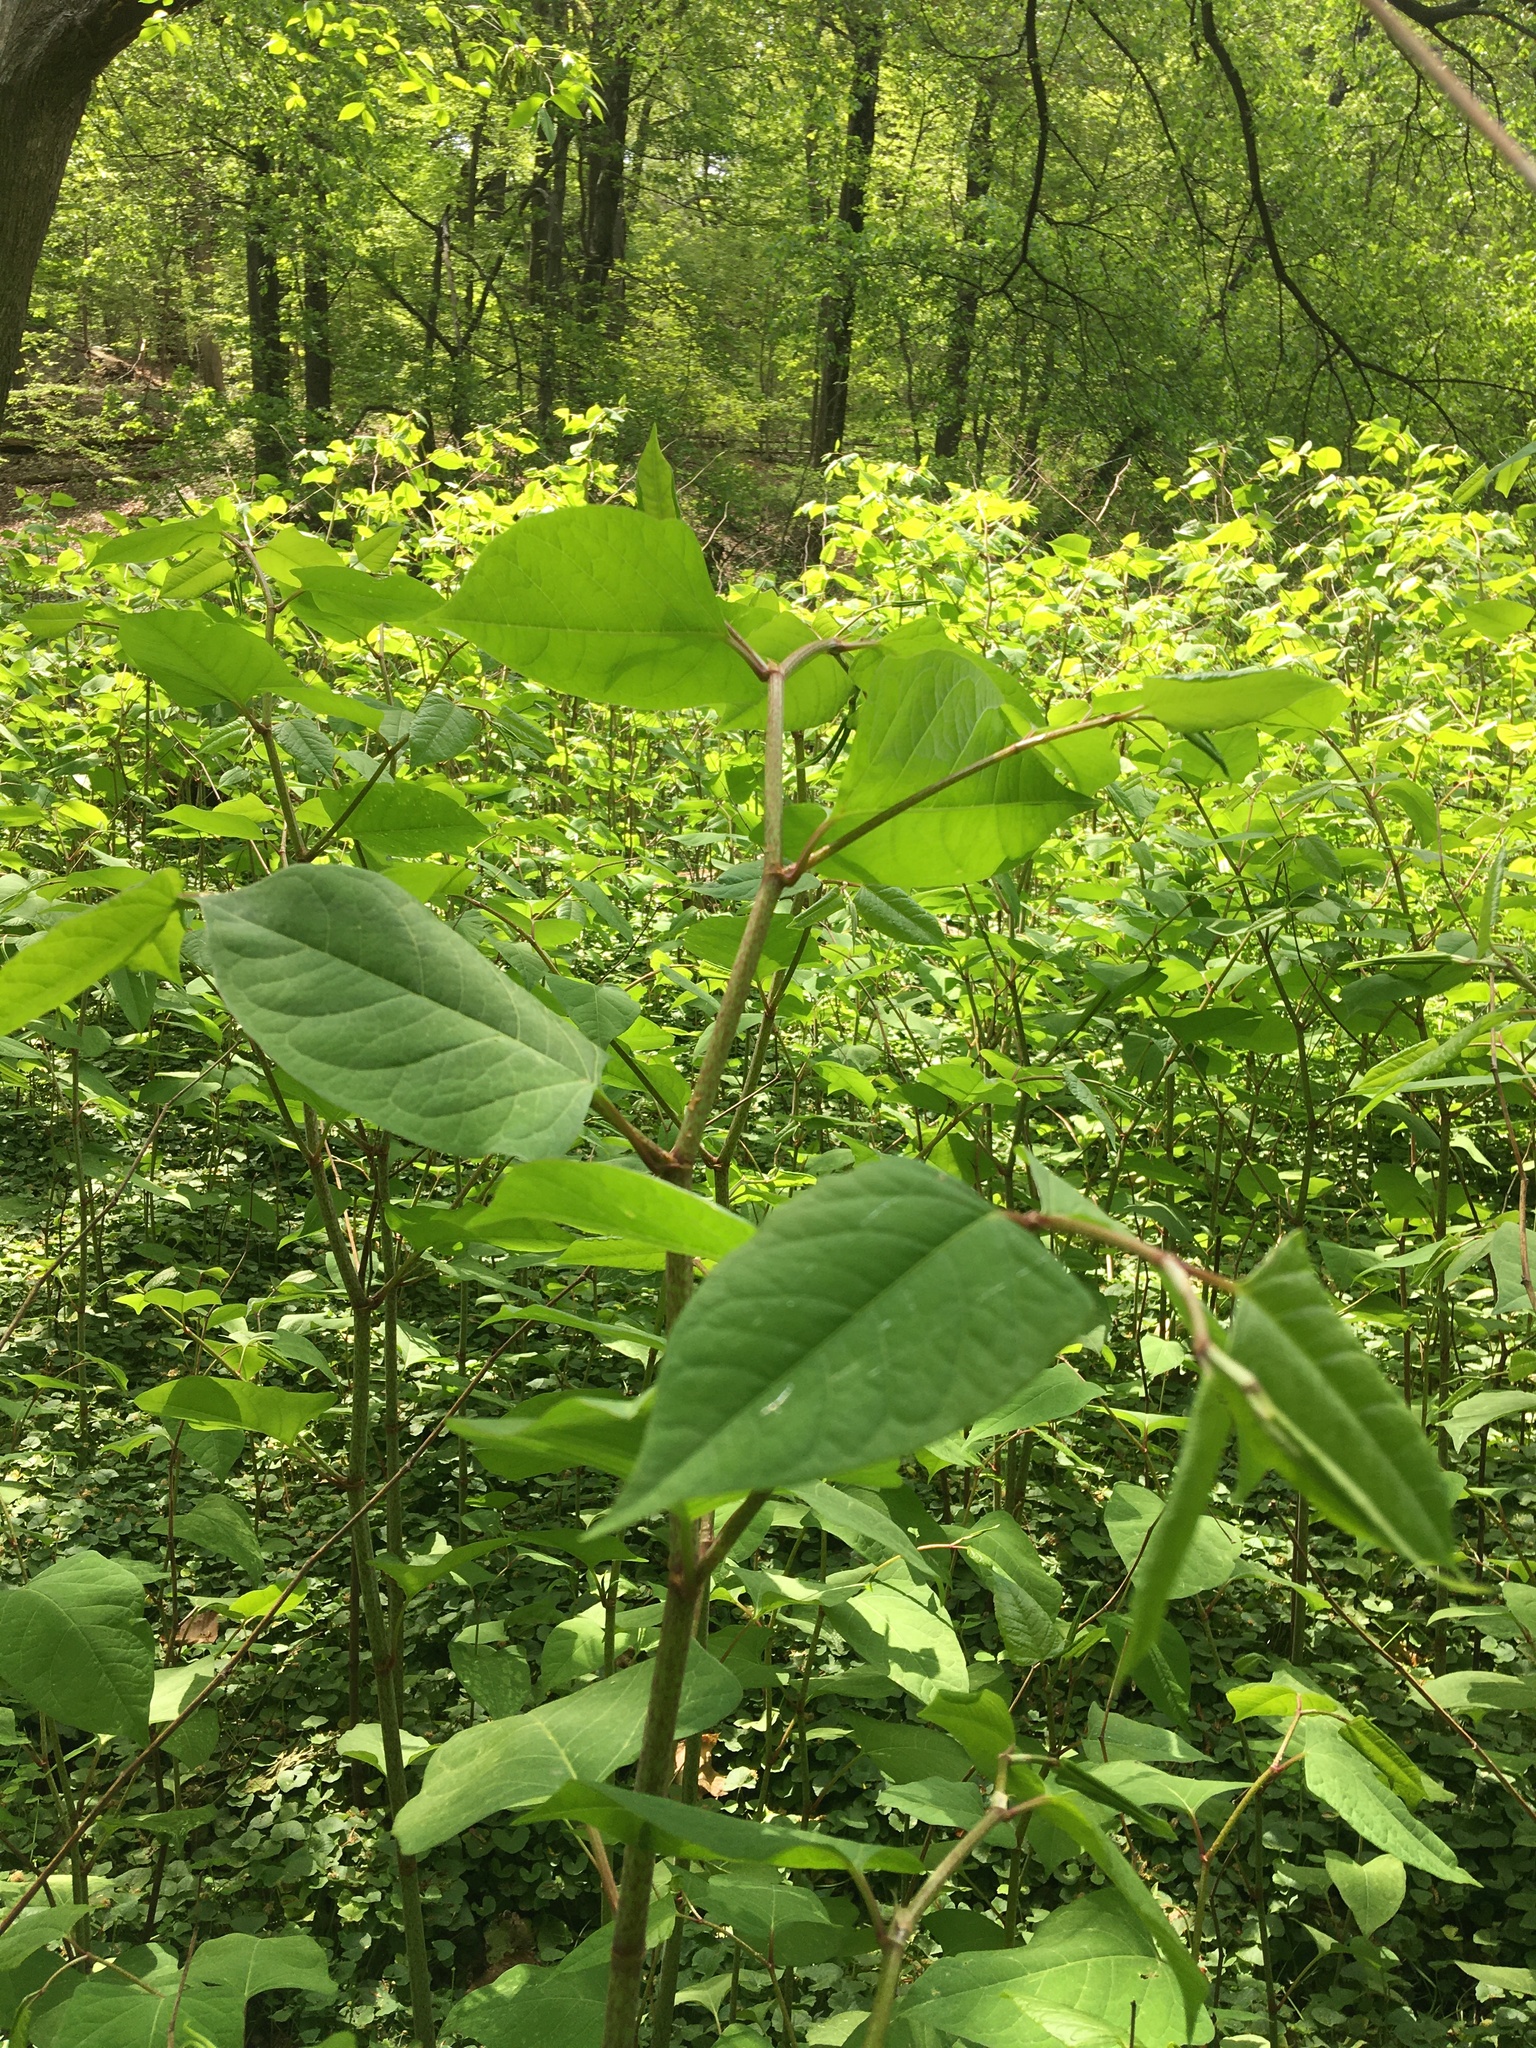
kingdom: Plantae
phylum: Tracheophyta
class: Magnoliopsida
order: Caryophyllales
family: Polygonaceae
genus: Reynoutria
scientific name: Reynoutria japonica
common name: Japanese knotweed
